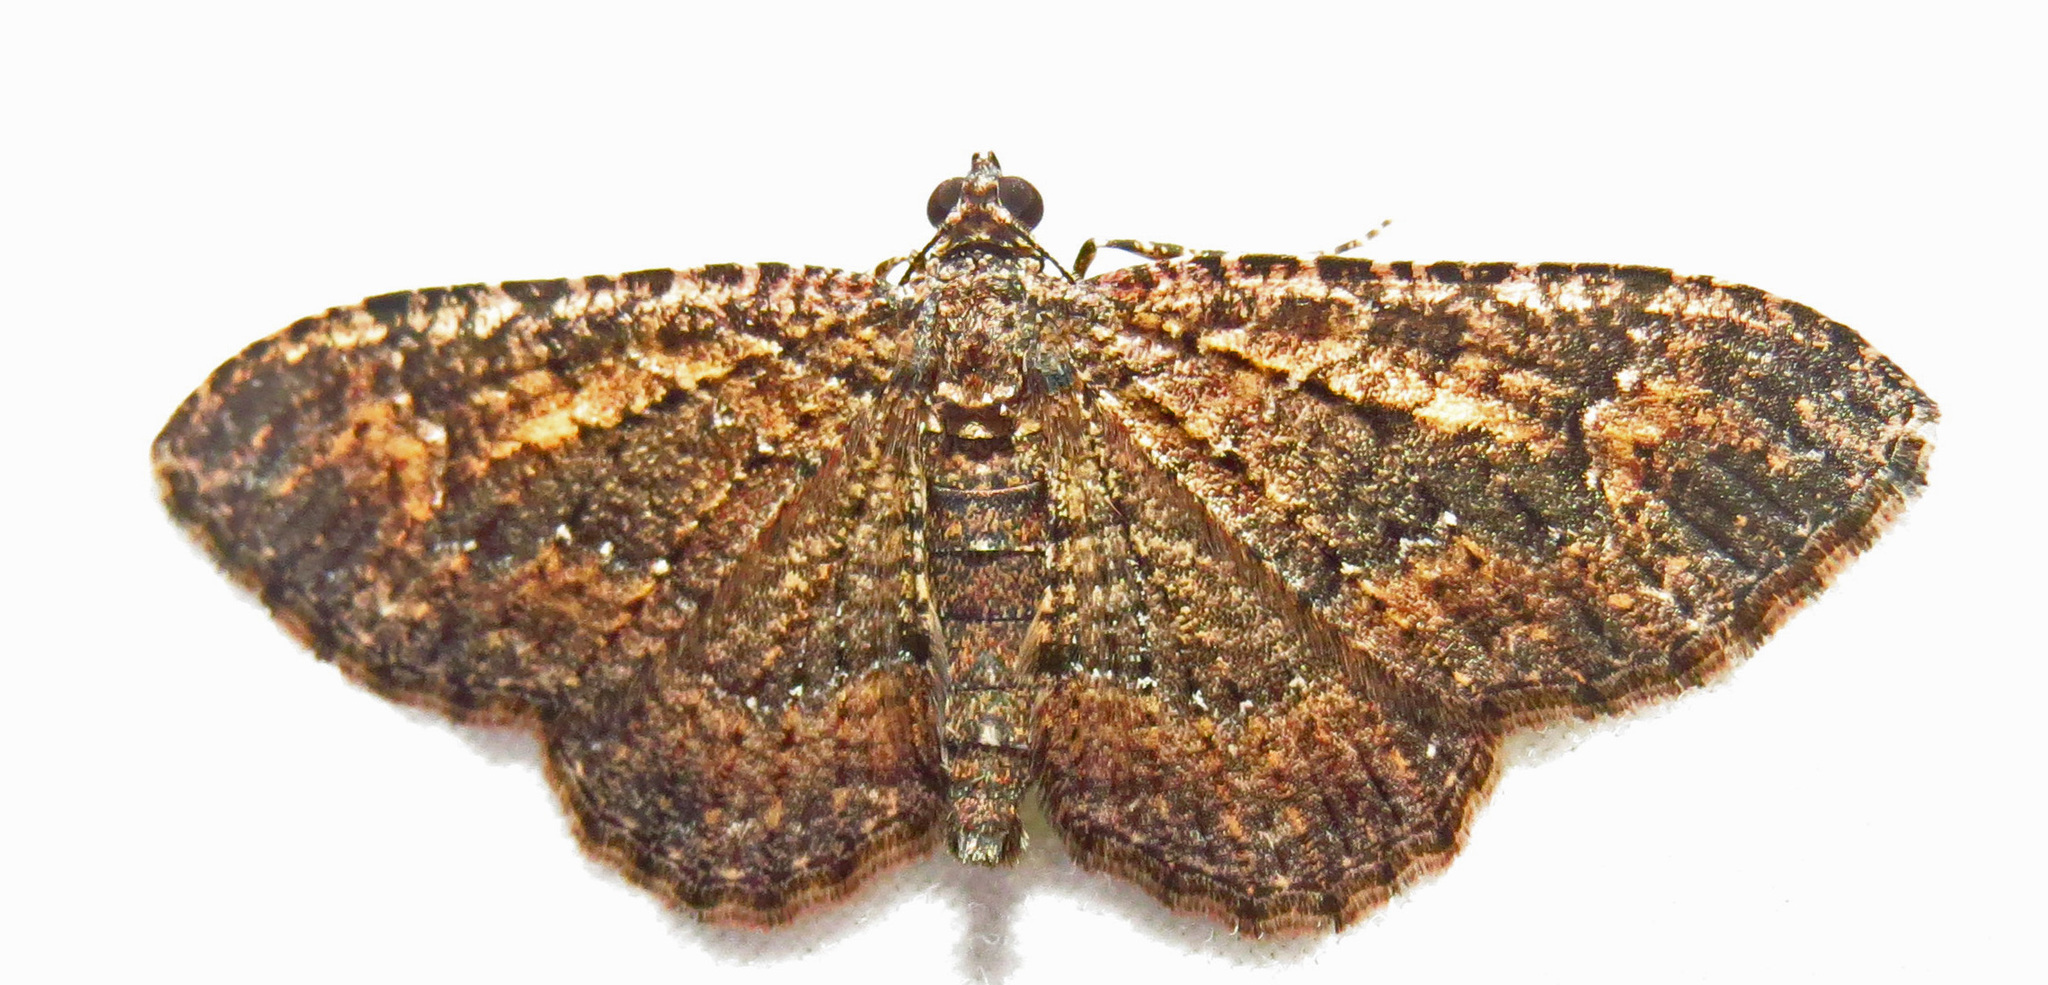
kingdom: Animalia
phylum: Arthropoda
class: Insecta
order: Lepidoptera
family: Geometridae
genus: Disclisioprocta
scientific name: Disclisioprocta stellata
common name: Somber carpet
